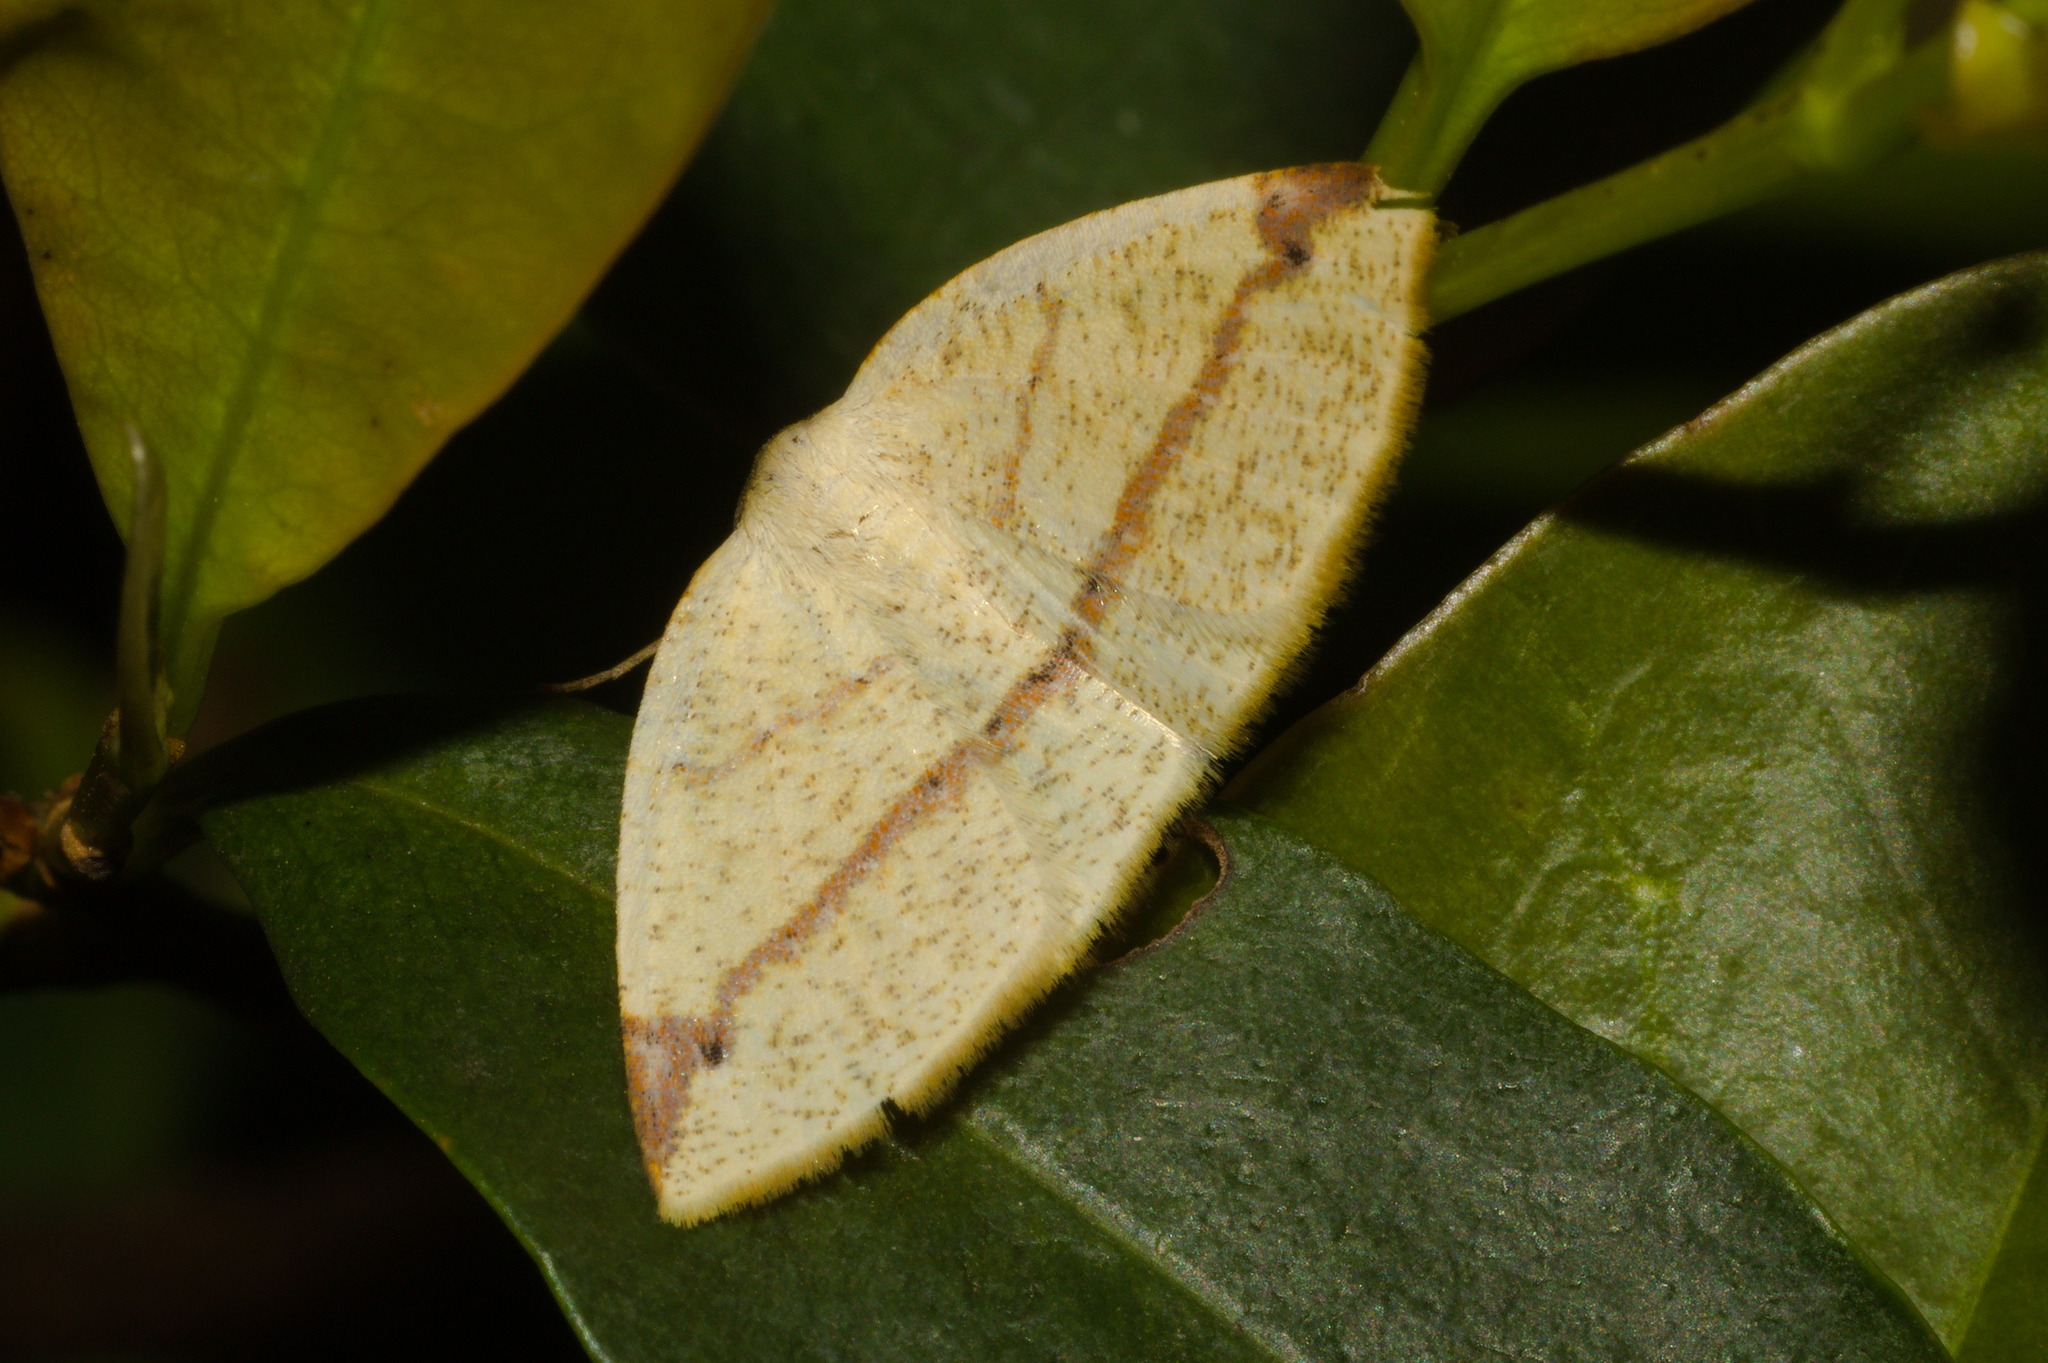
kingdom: Animalia
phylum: Arthropoda
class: Insecta
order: Lepidoptera
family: Geometridae
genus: Microxydia
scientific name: Microxydia orsitaria
